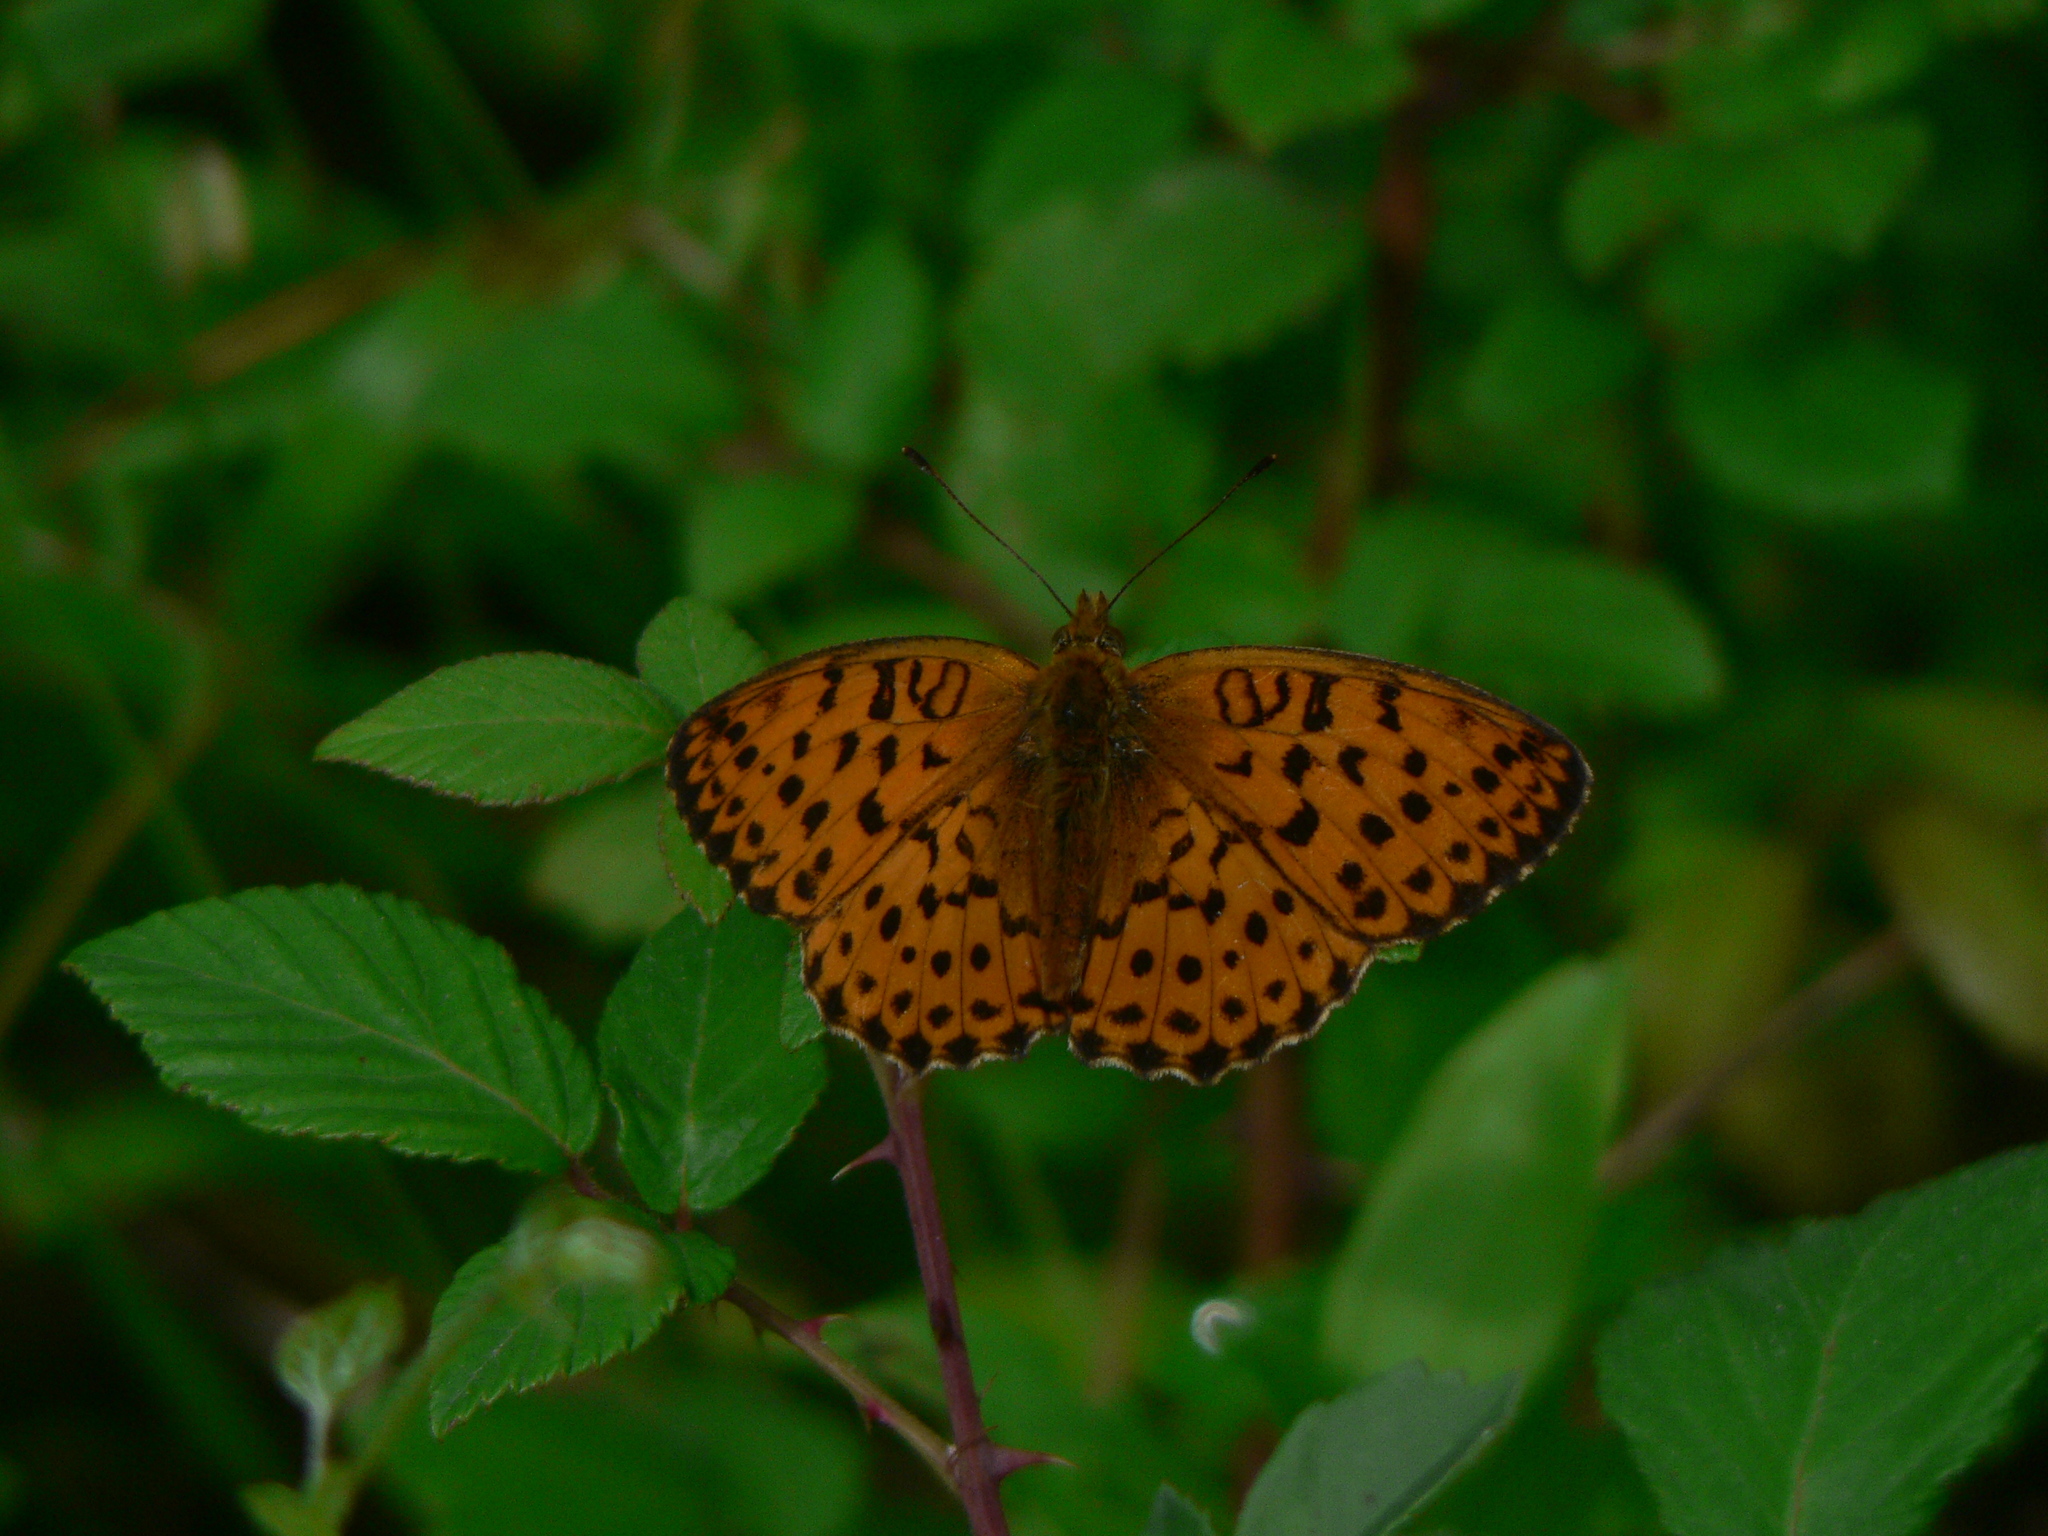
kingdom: Animalia
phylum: Arthropoda
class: Insecta
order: Lepidoptera
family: Nymphalidae
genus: Brenthis
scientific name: Brenthis daphne
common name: Marbled fritillary
